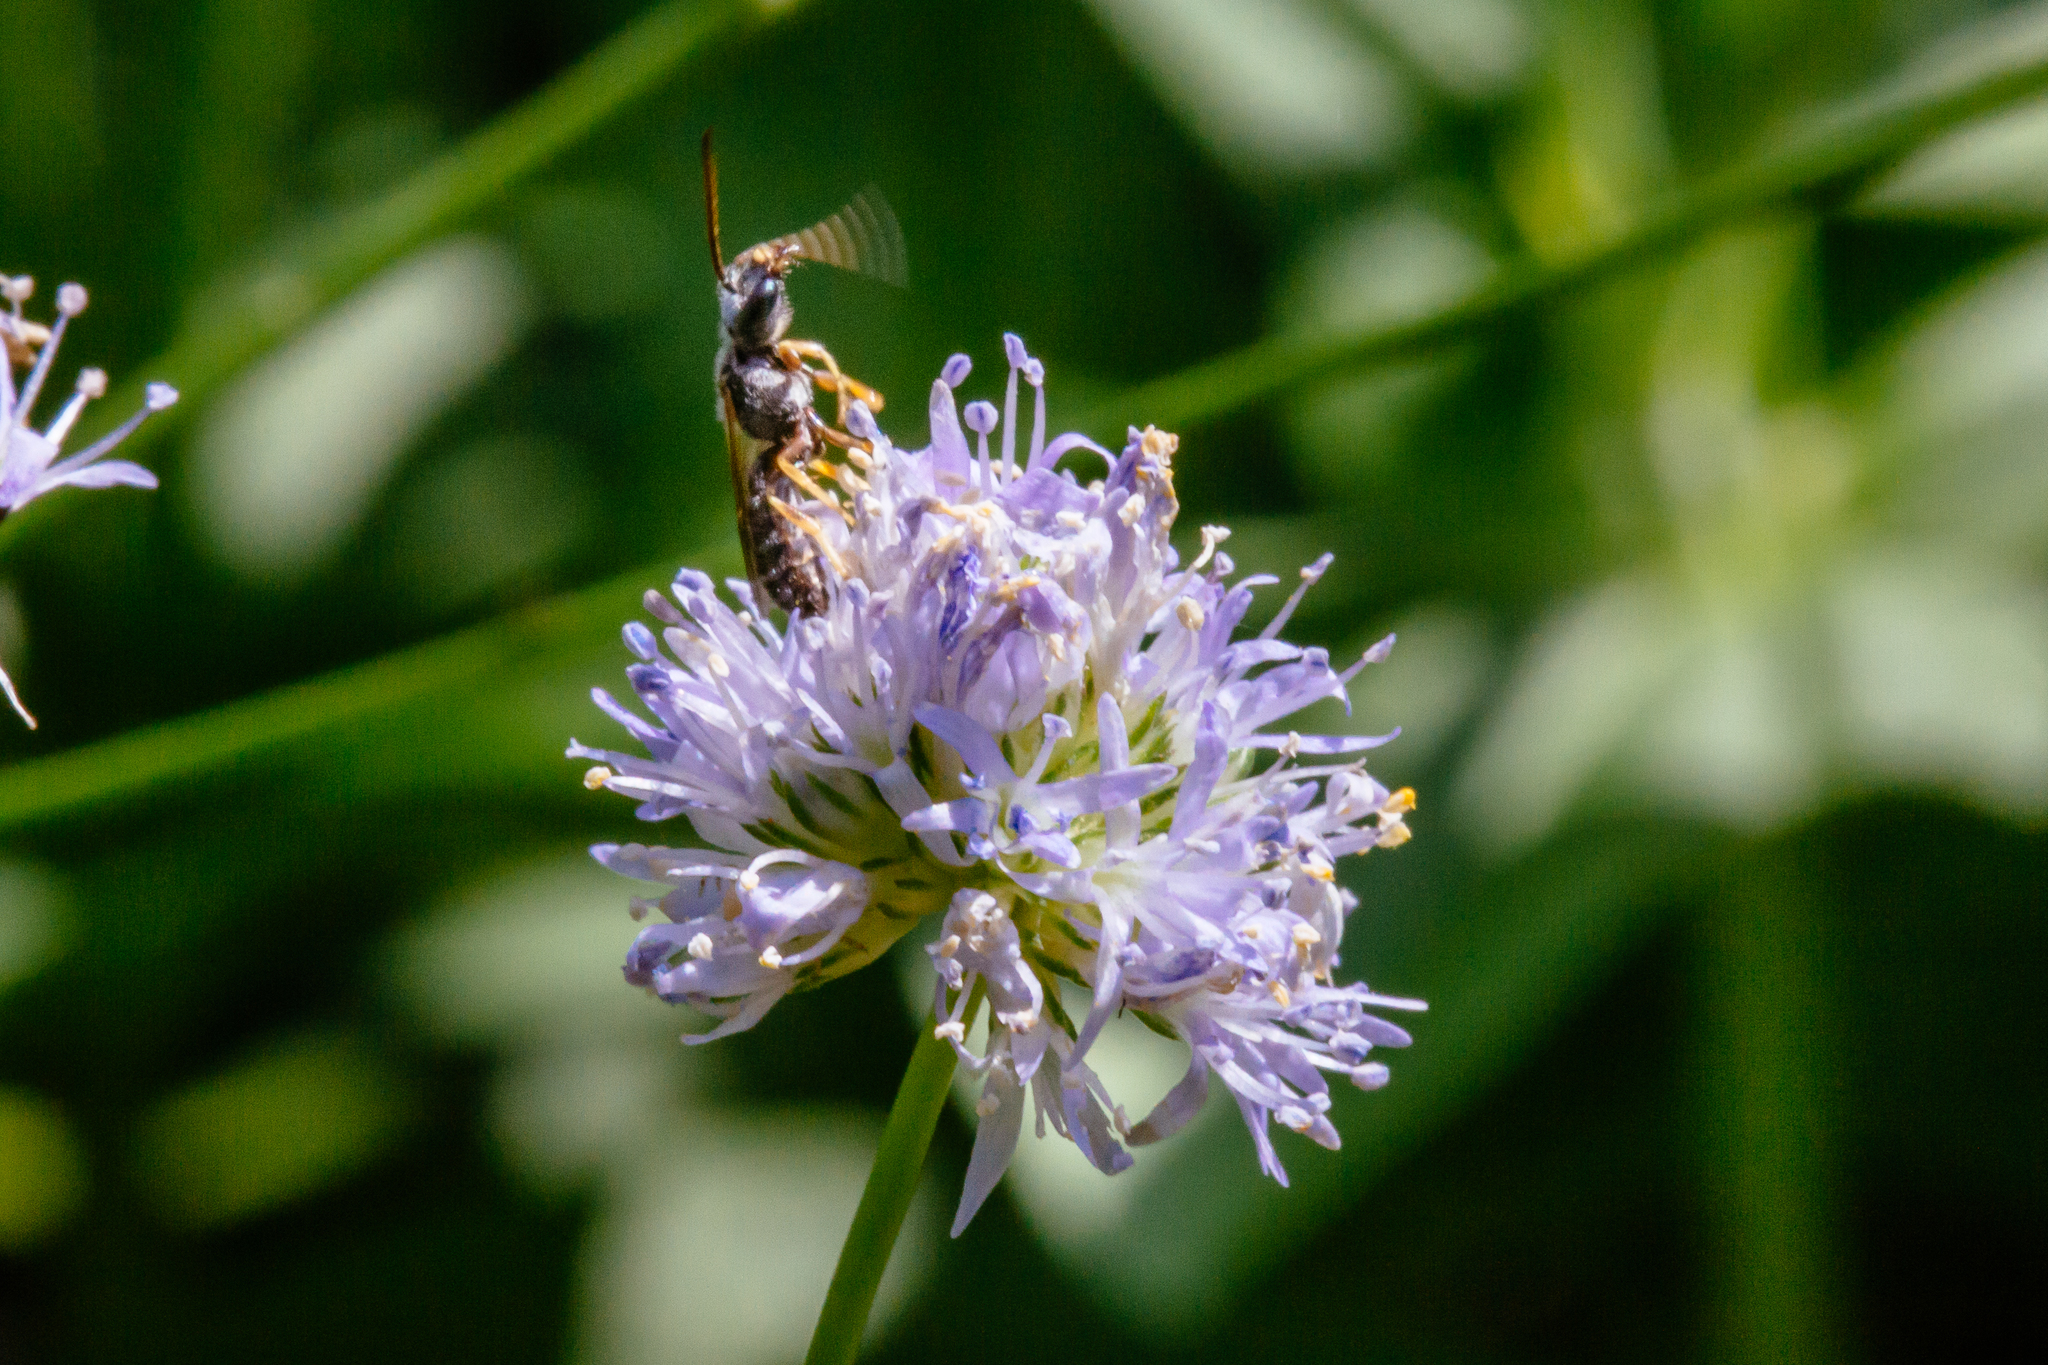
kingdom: Animalia
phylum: Arthropoda
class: Insecta
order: Hymenoptera
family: Halictidae
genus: Halictus
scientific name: Halictus ligatus
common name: Ligated furrow bee
